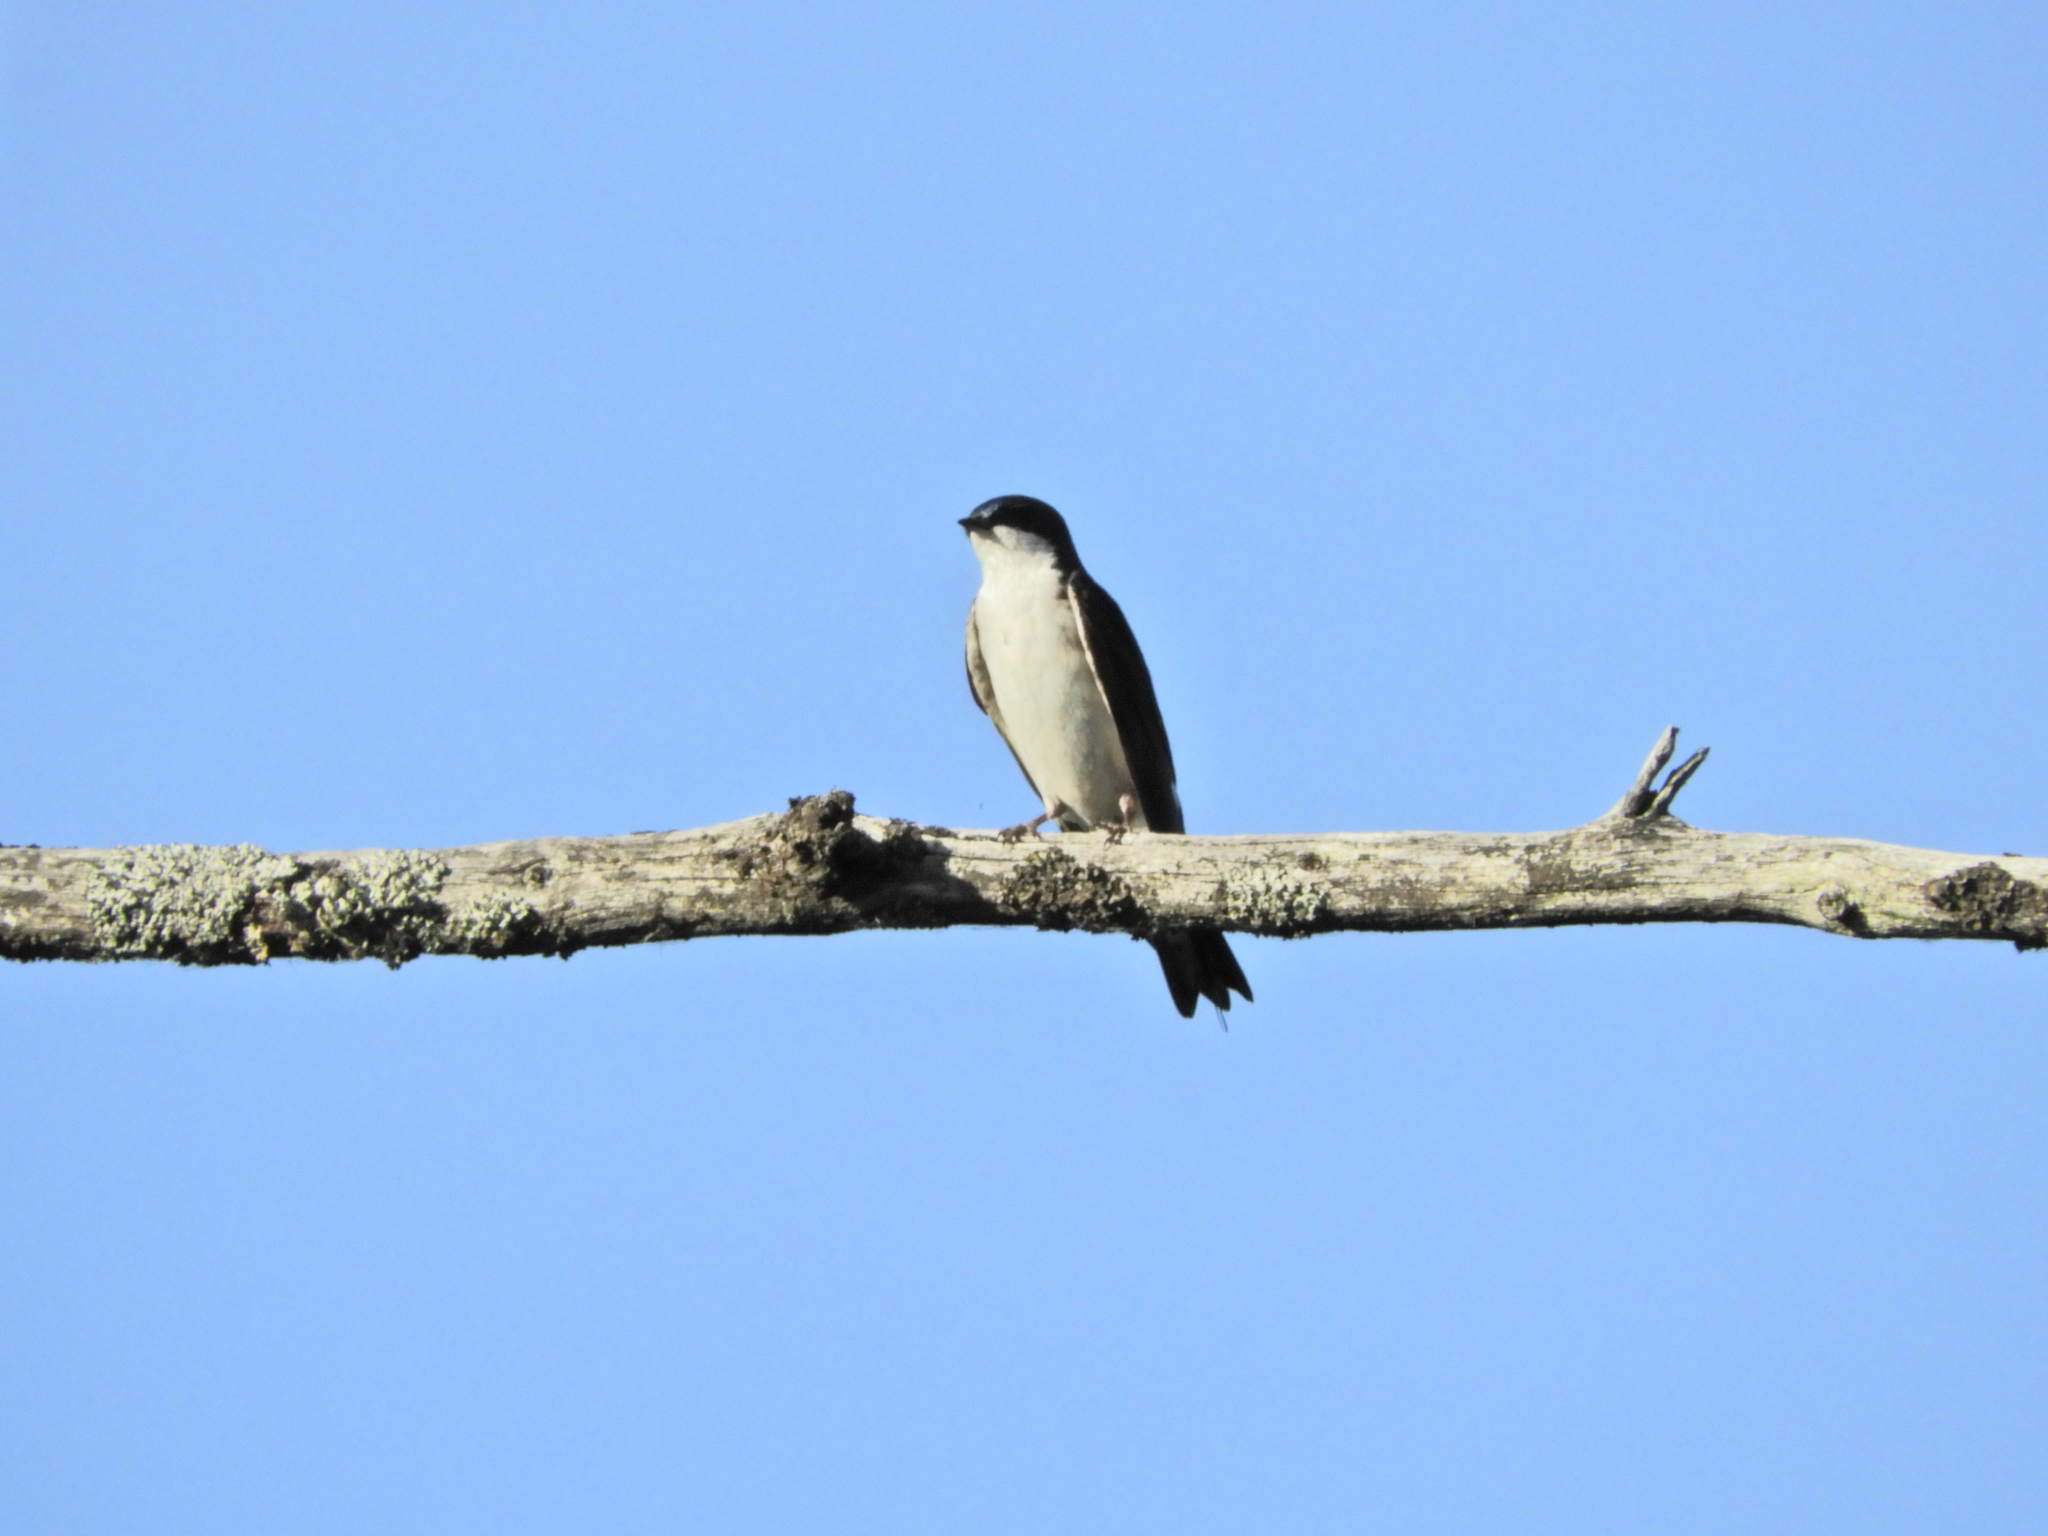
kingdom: Animalia
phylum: Chordata
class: Aves
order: Passeriformes
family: Hirundinidae
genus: Tachycineta
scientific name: Tachycineta bicolor
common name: Tree swallow
